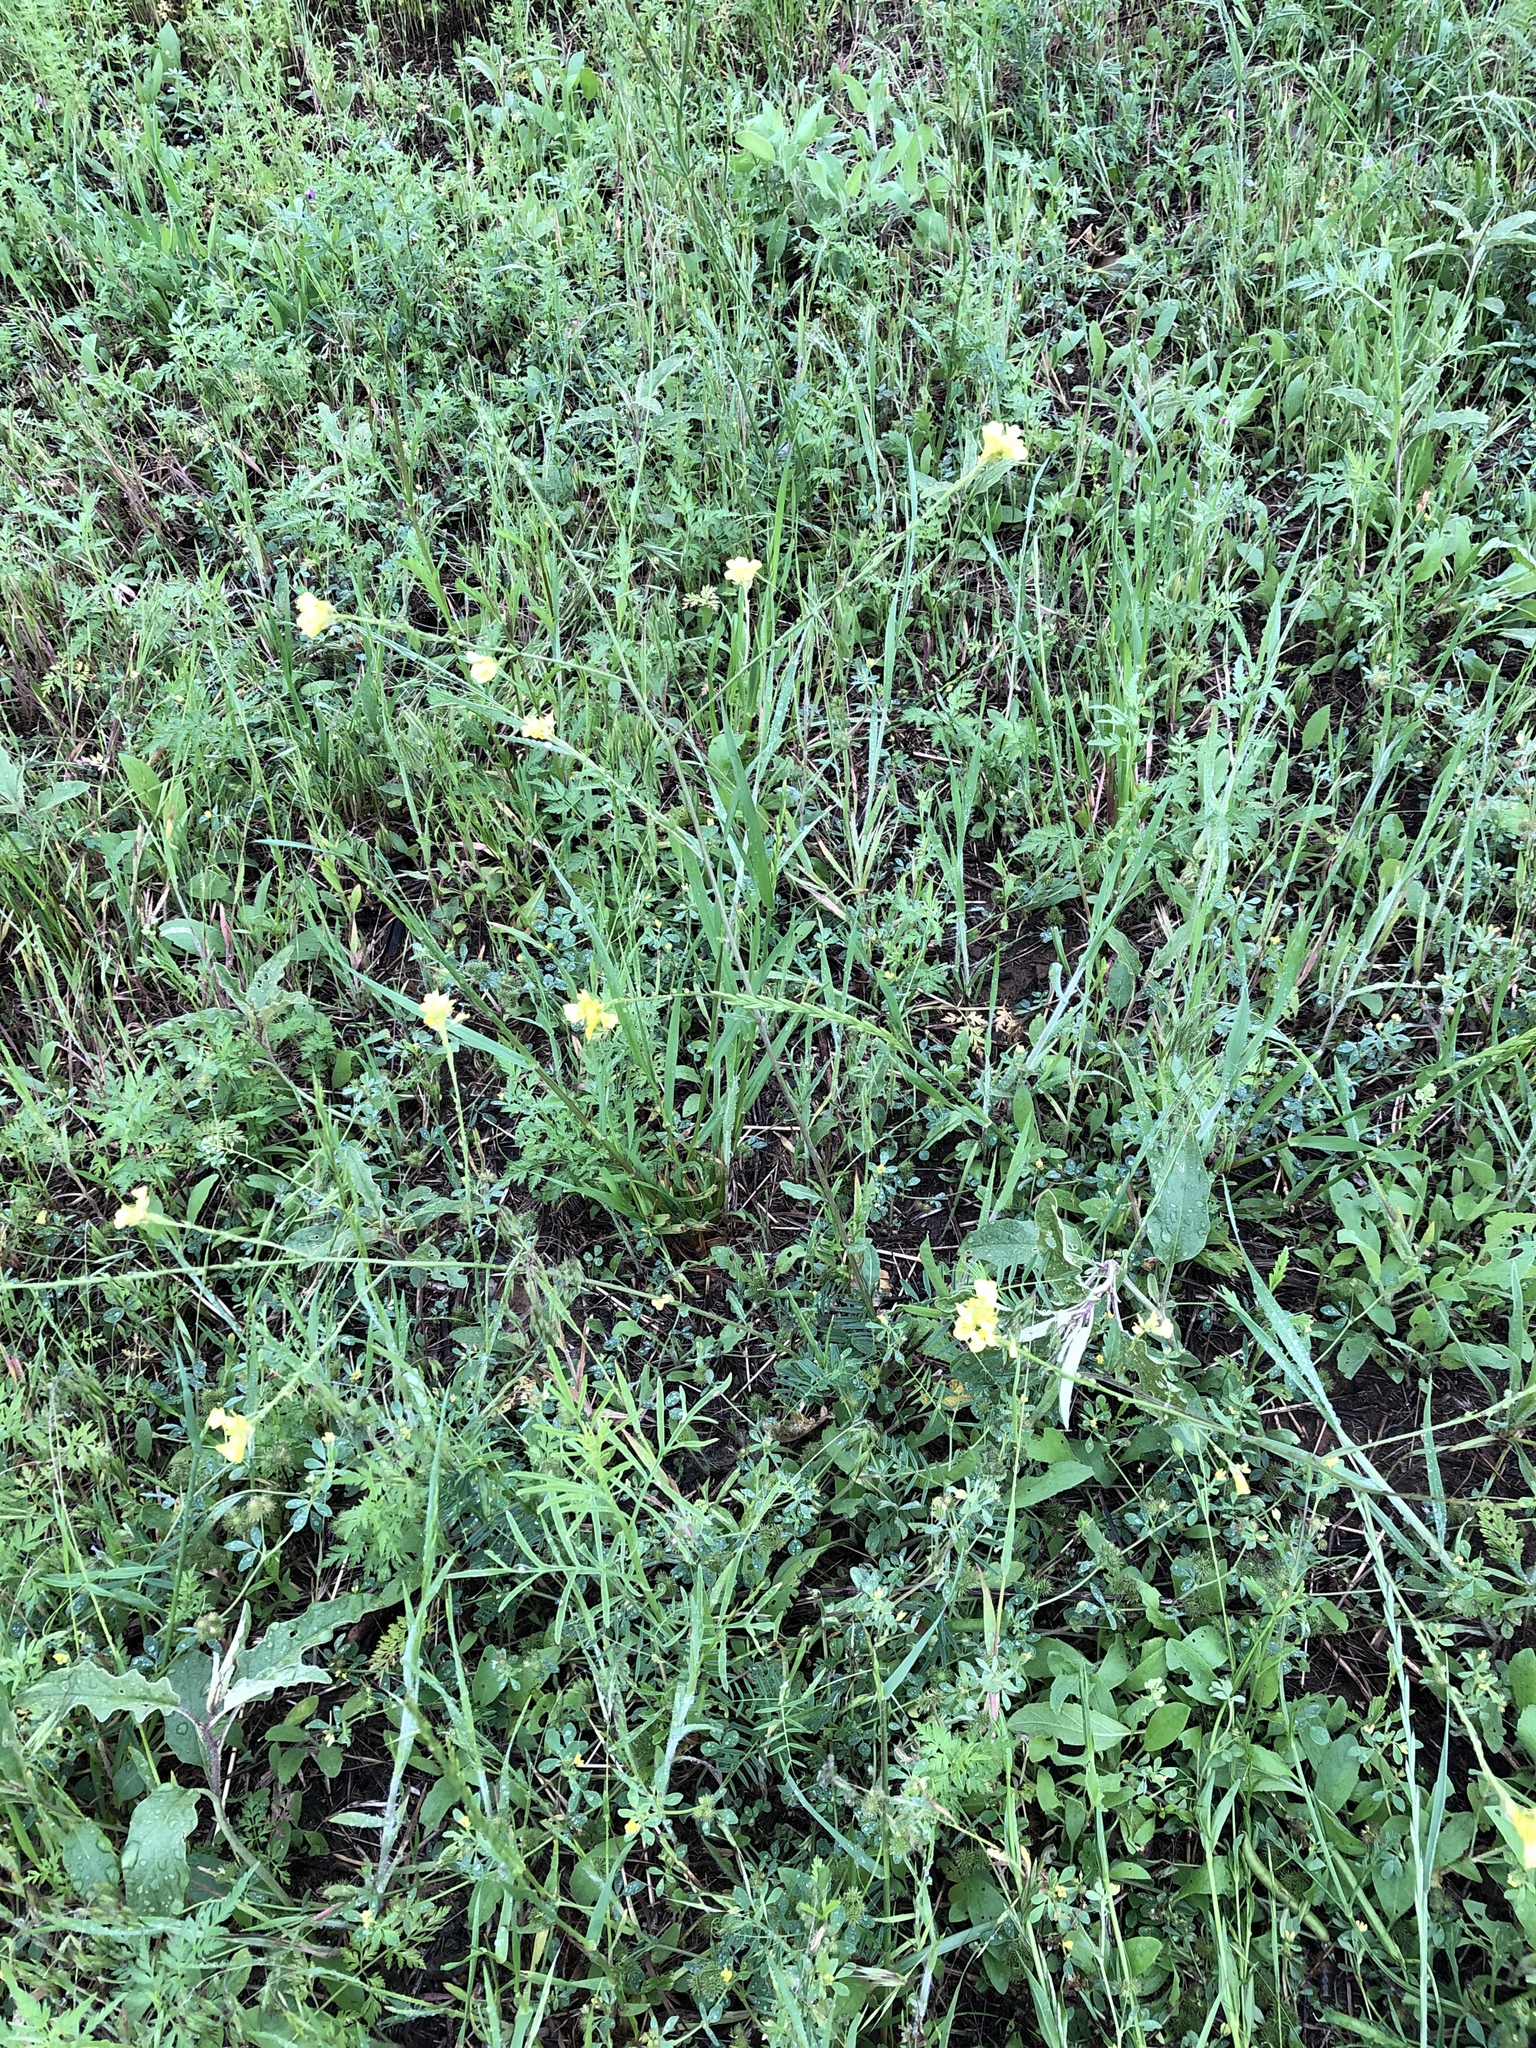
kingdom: Plantae
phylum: Tracheophyta
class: Magnoliopsida
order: Brassicales
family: Brassicaceae
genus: Rapistrum
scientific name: Rapistrum rugosum
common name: Annual bastardcabbage
